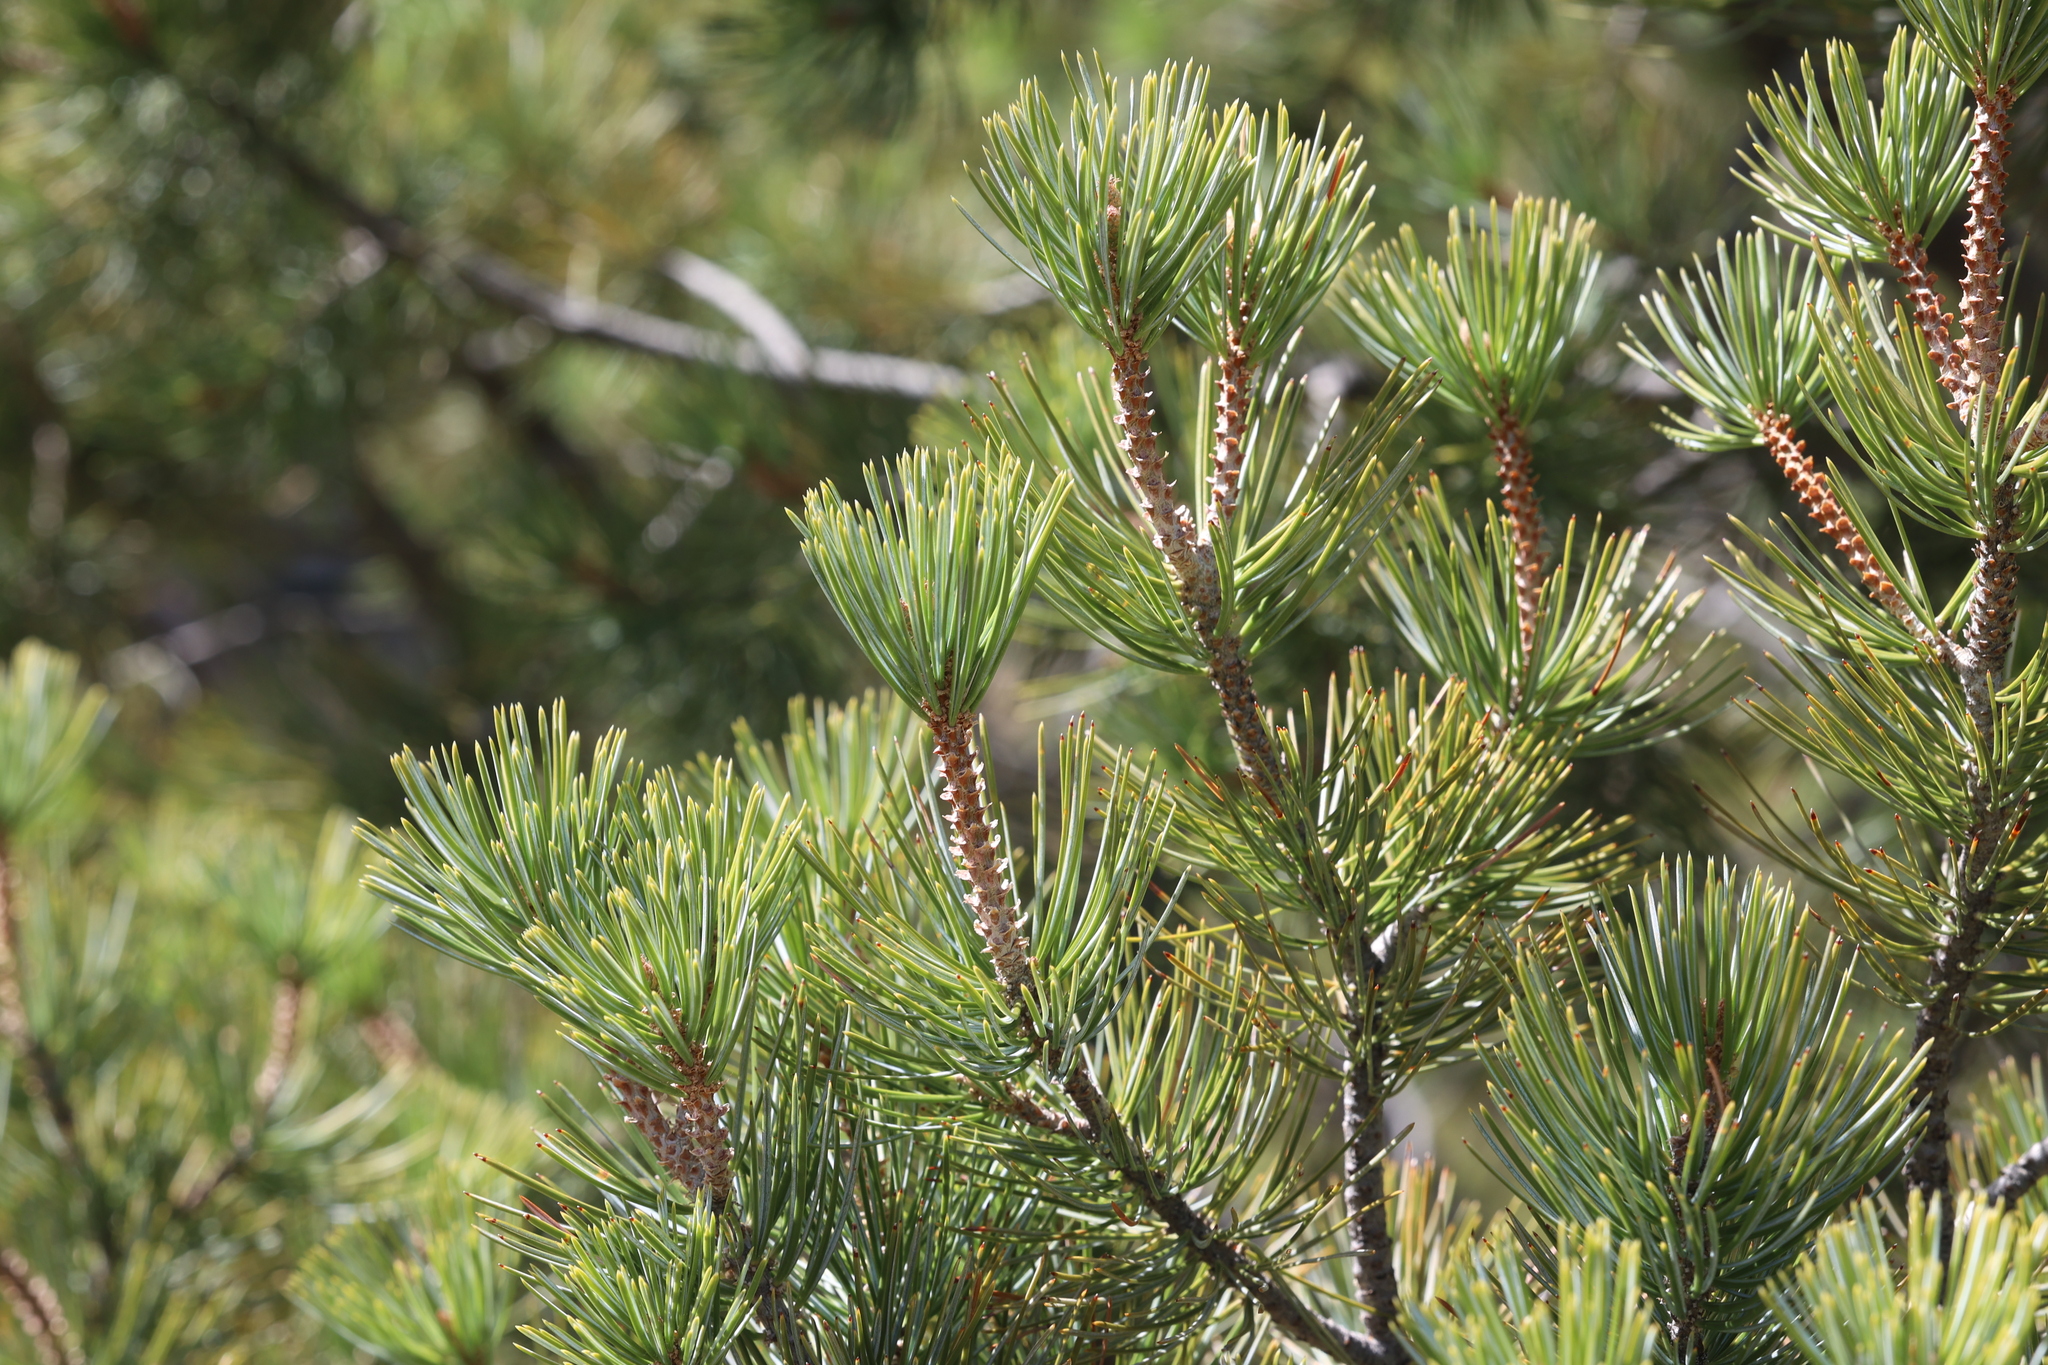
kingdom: Plantae
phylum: Tracheophyta
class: Pinopsida
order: Pinales
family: Pinaceae
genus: Pinus
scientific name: Pinus discolor
